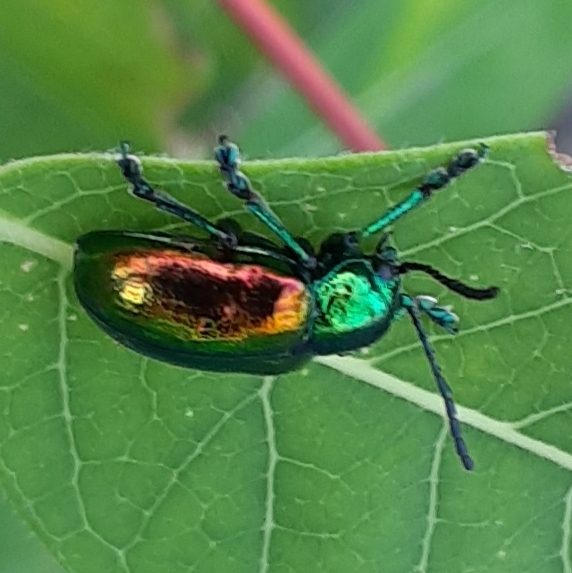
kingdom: Animalia
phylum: Arthropoda
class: Insecta
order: Coleoptera
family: Chrysomelidae
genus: Chrysochus
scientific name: Chrysochus auratus
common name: Dogbane leaf beetle
